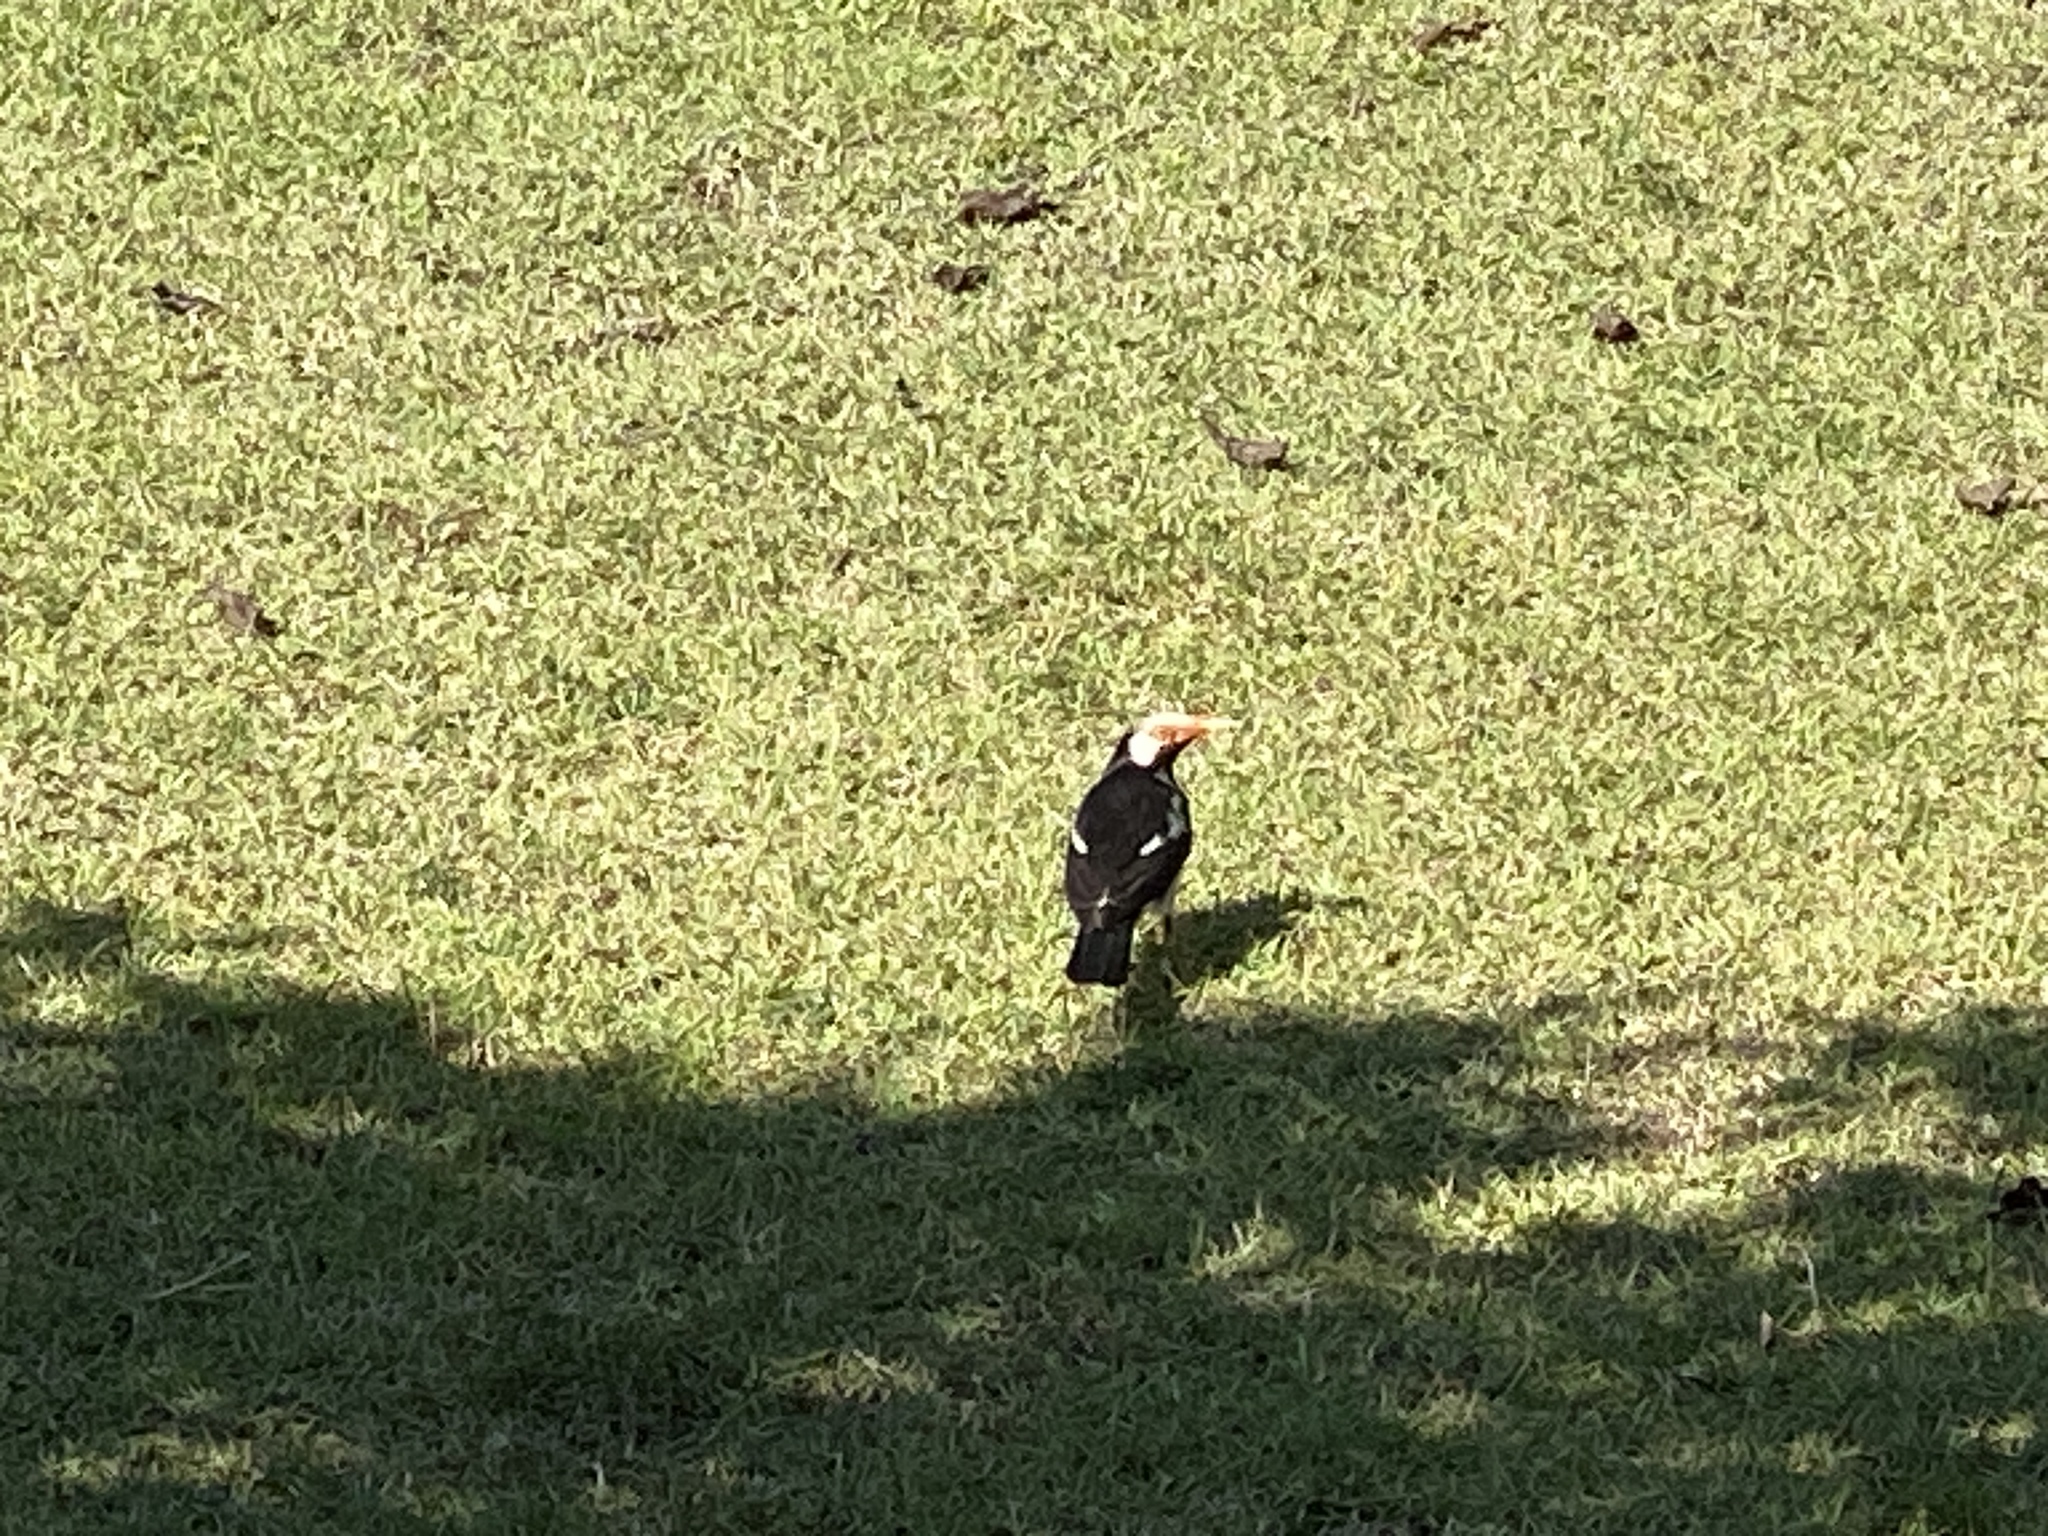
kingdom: Animalia
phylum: Chordata
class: Aves
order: Passeriformes
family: Sturnidae
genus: Gracupica
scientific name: Gracupica contra
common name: Pied myna
